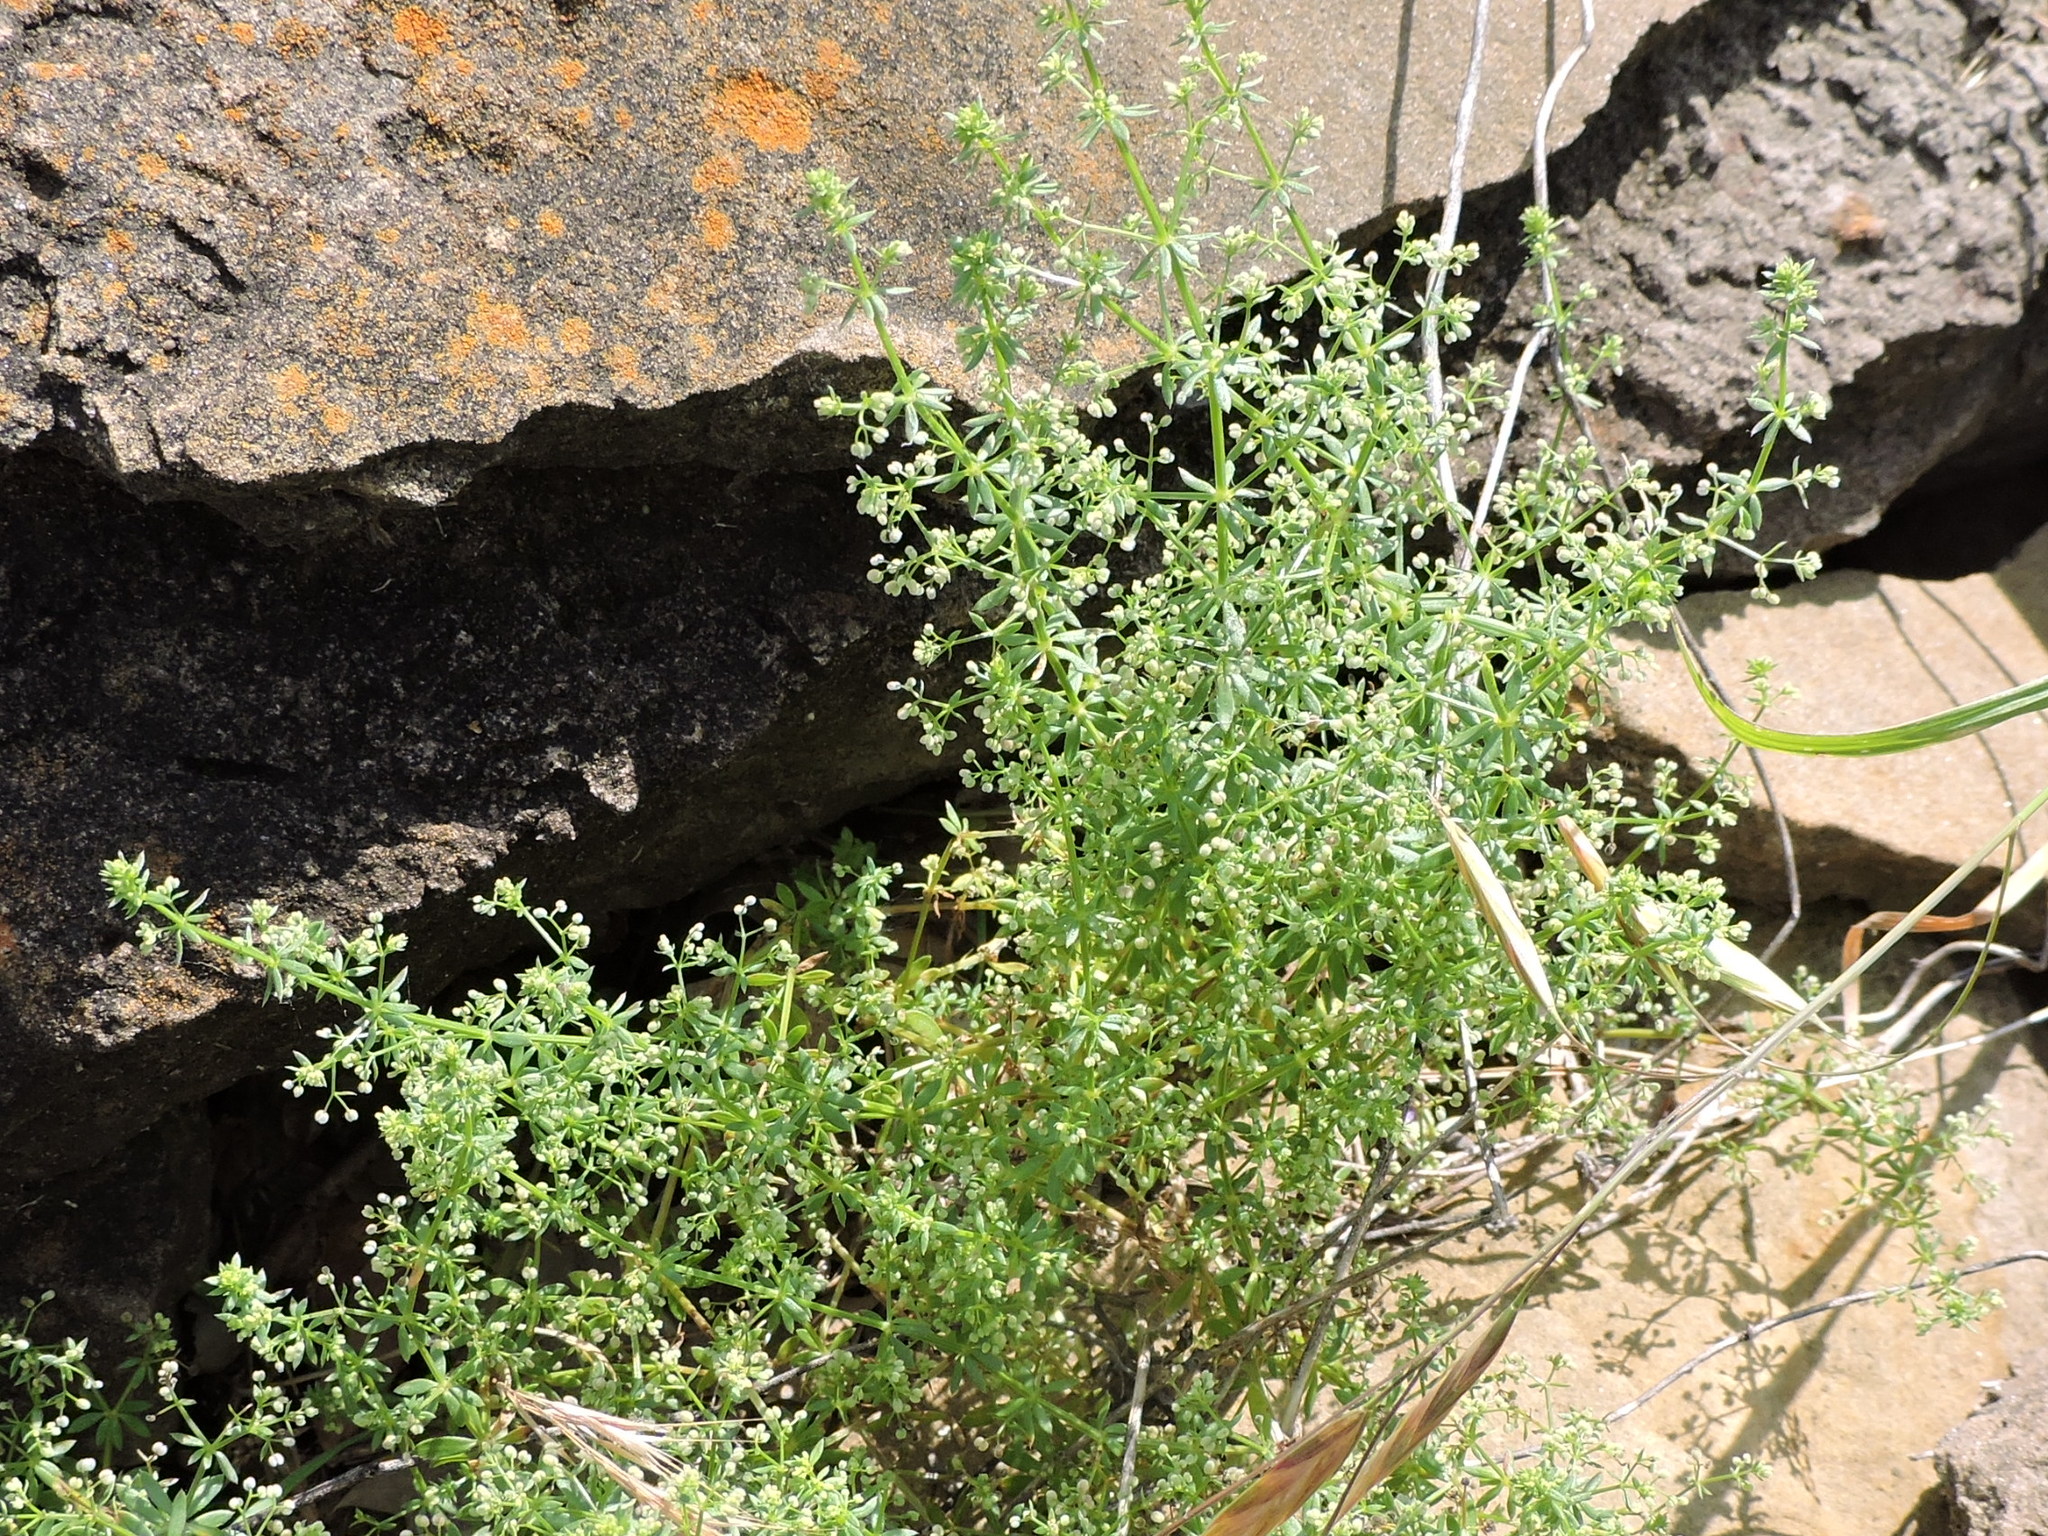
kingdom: Plantae
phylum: Tracheophyta
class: Magnoliopsida
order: Gentianales
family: Rubiaceae
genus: Galium
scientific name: Galium parisiense
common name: Wall bedstraw
